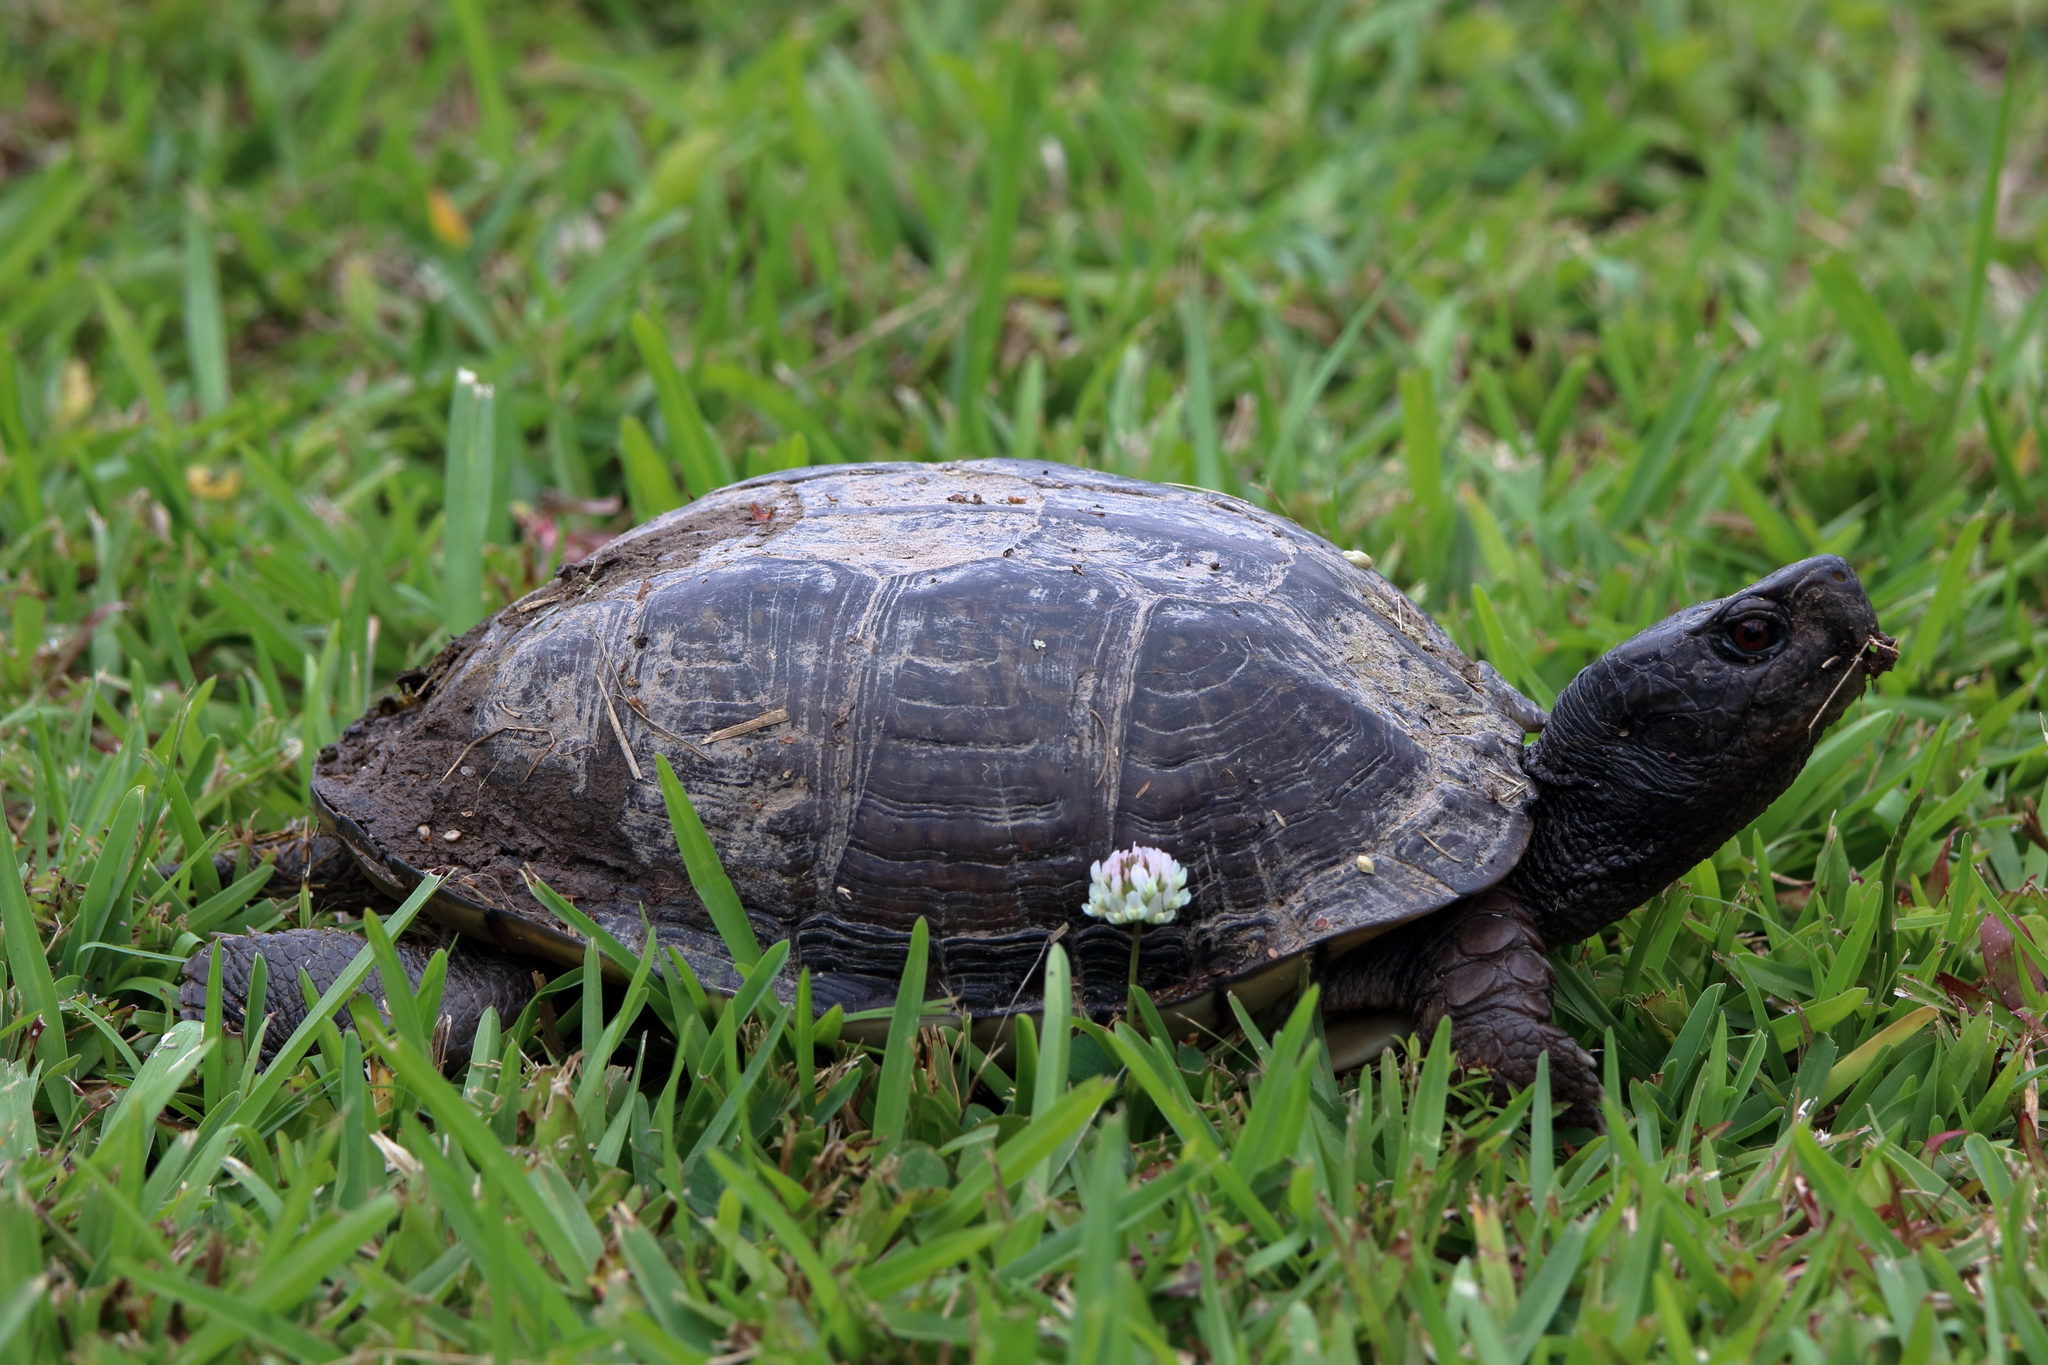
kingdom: Animalia
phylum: Chordata
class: Testudines
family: Emydidae
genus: Terrapene
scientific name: Terrapene carolina
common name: Common box turtle
